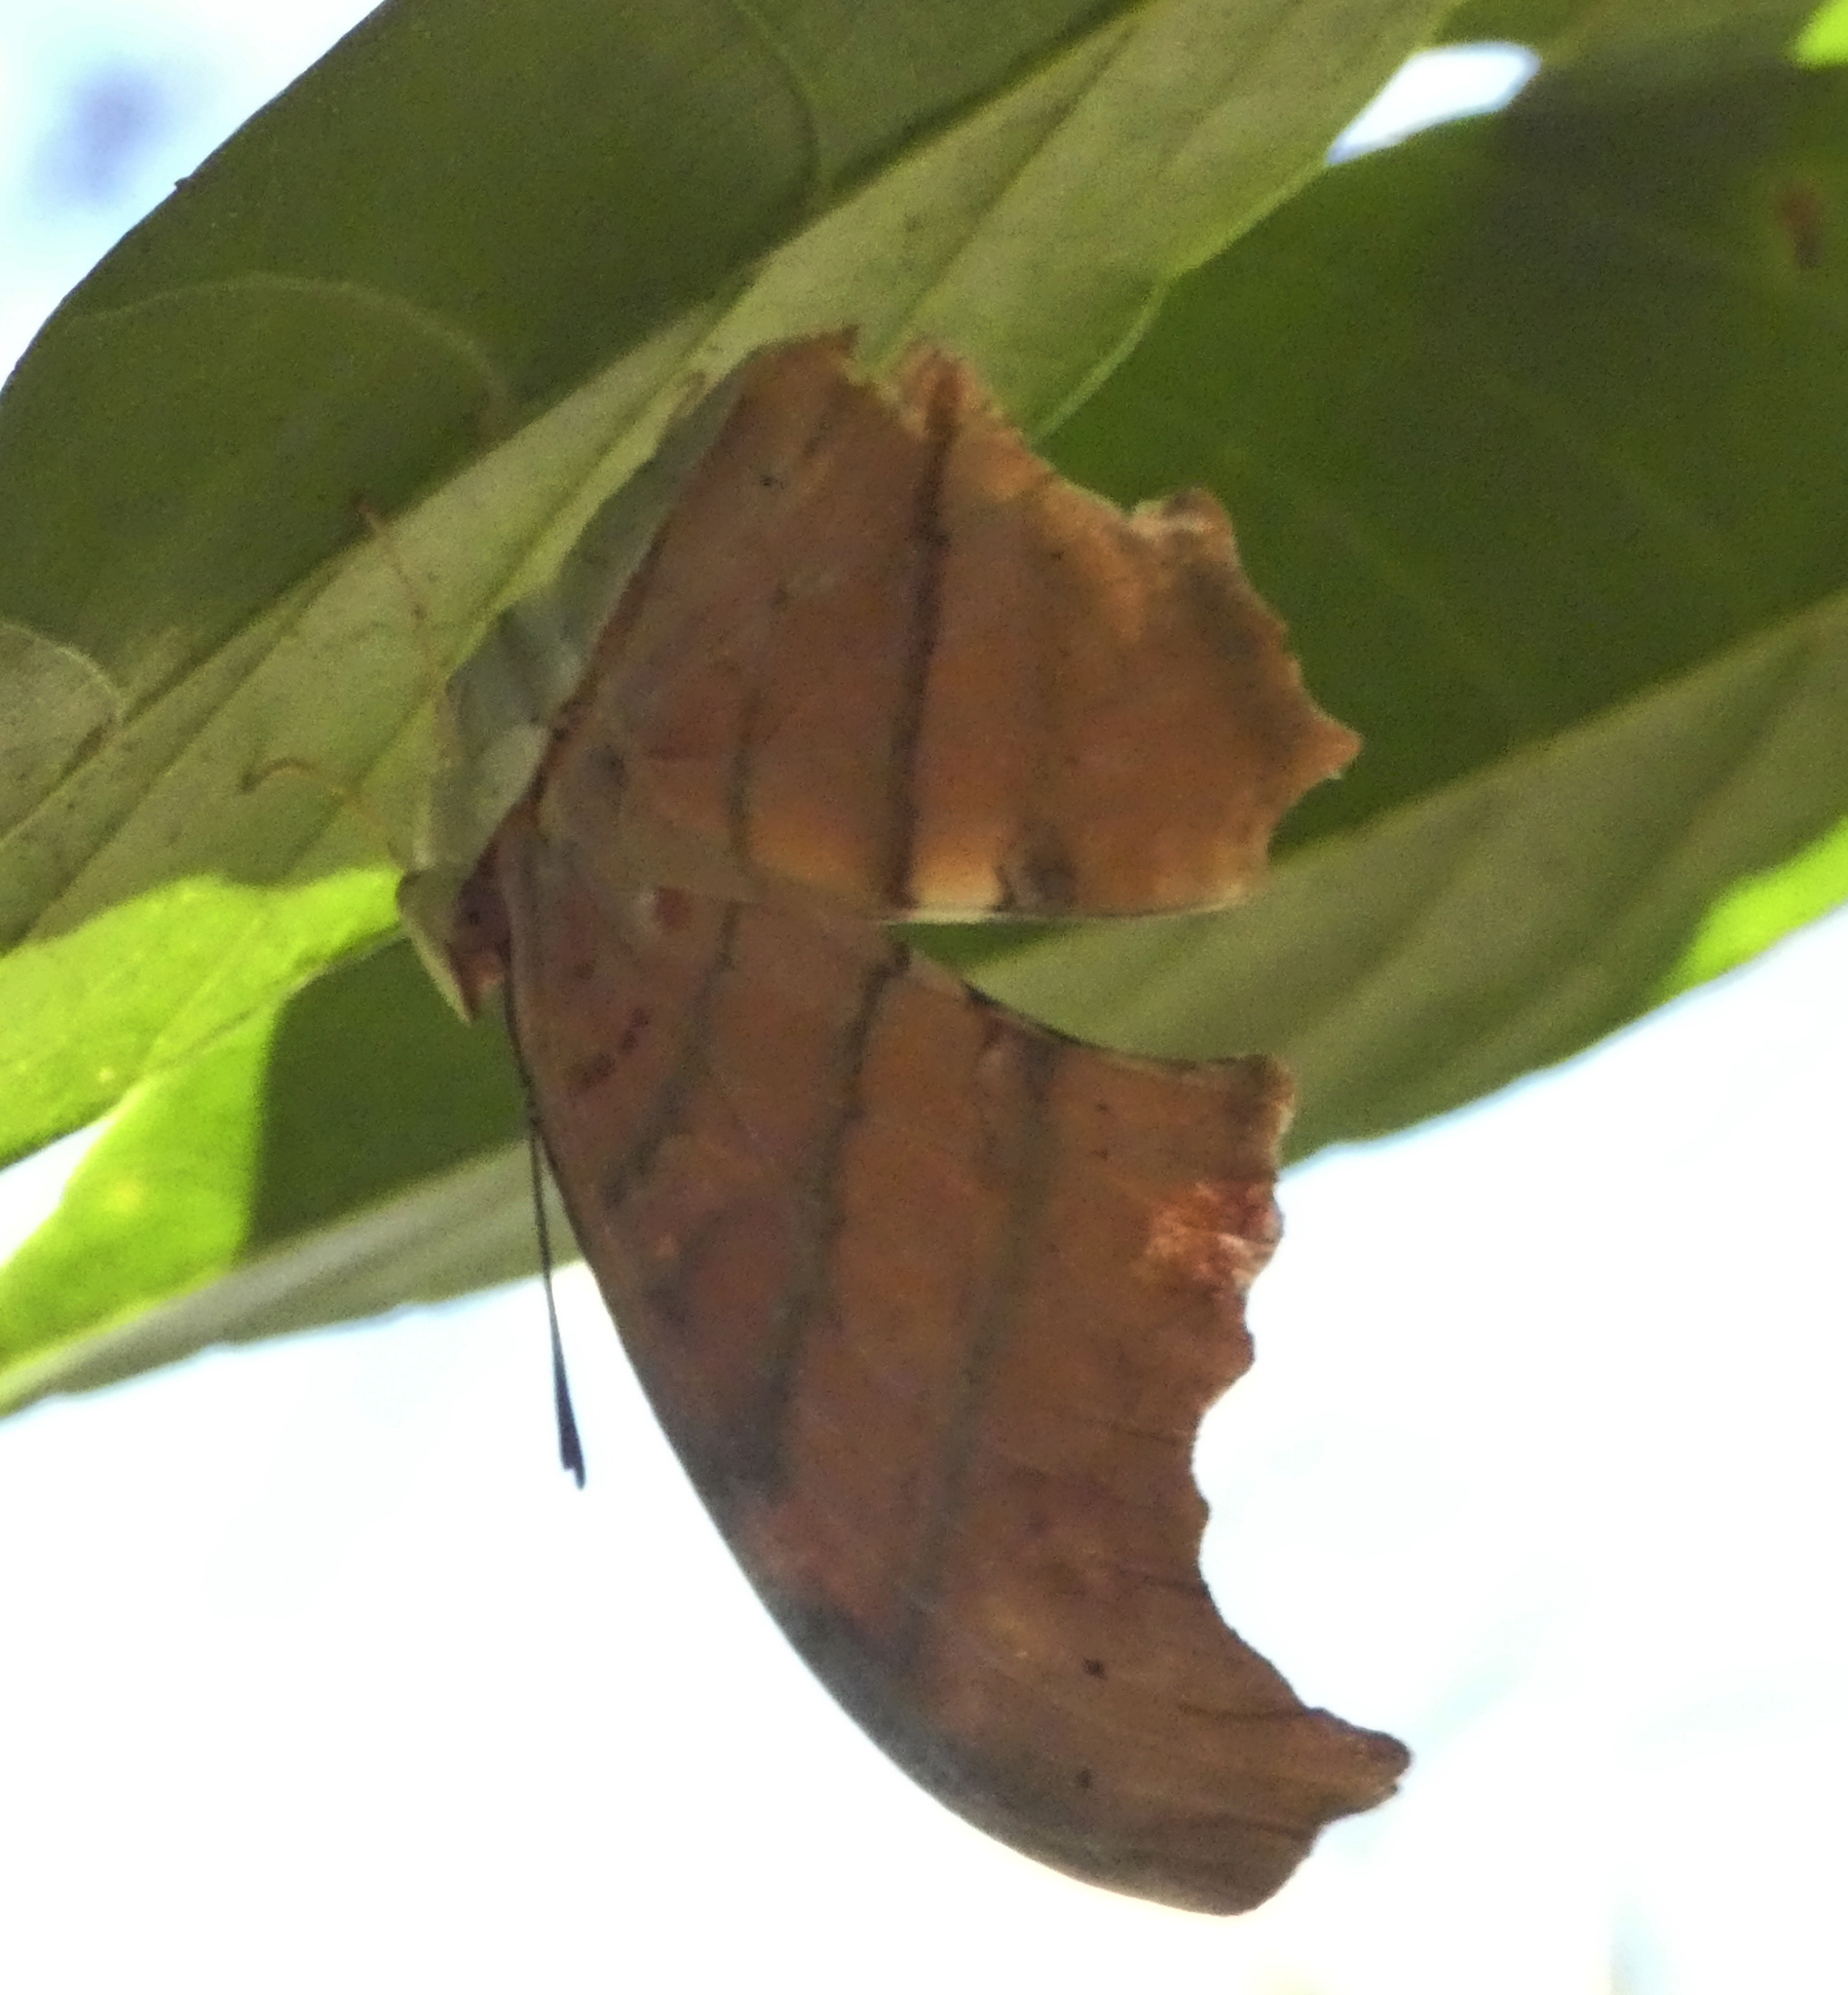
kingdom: Animalia
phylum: Arthropoda
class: Insecta
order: Lepidoptera
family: Nymphalidae
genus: Marpesia
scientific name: Marpesia petreus
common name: Red dagger wing
